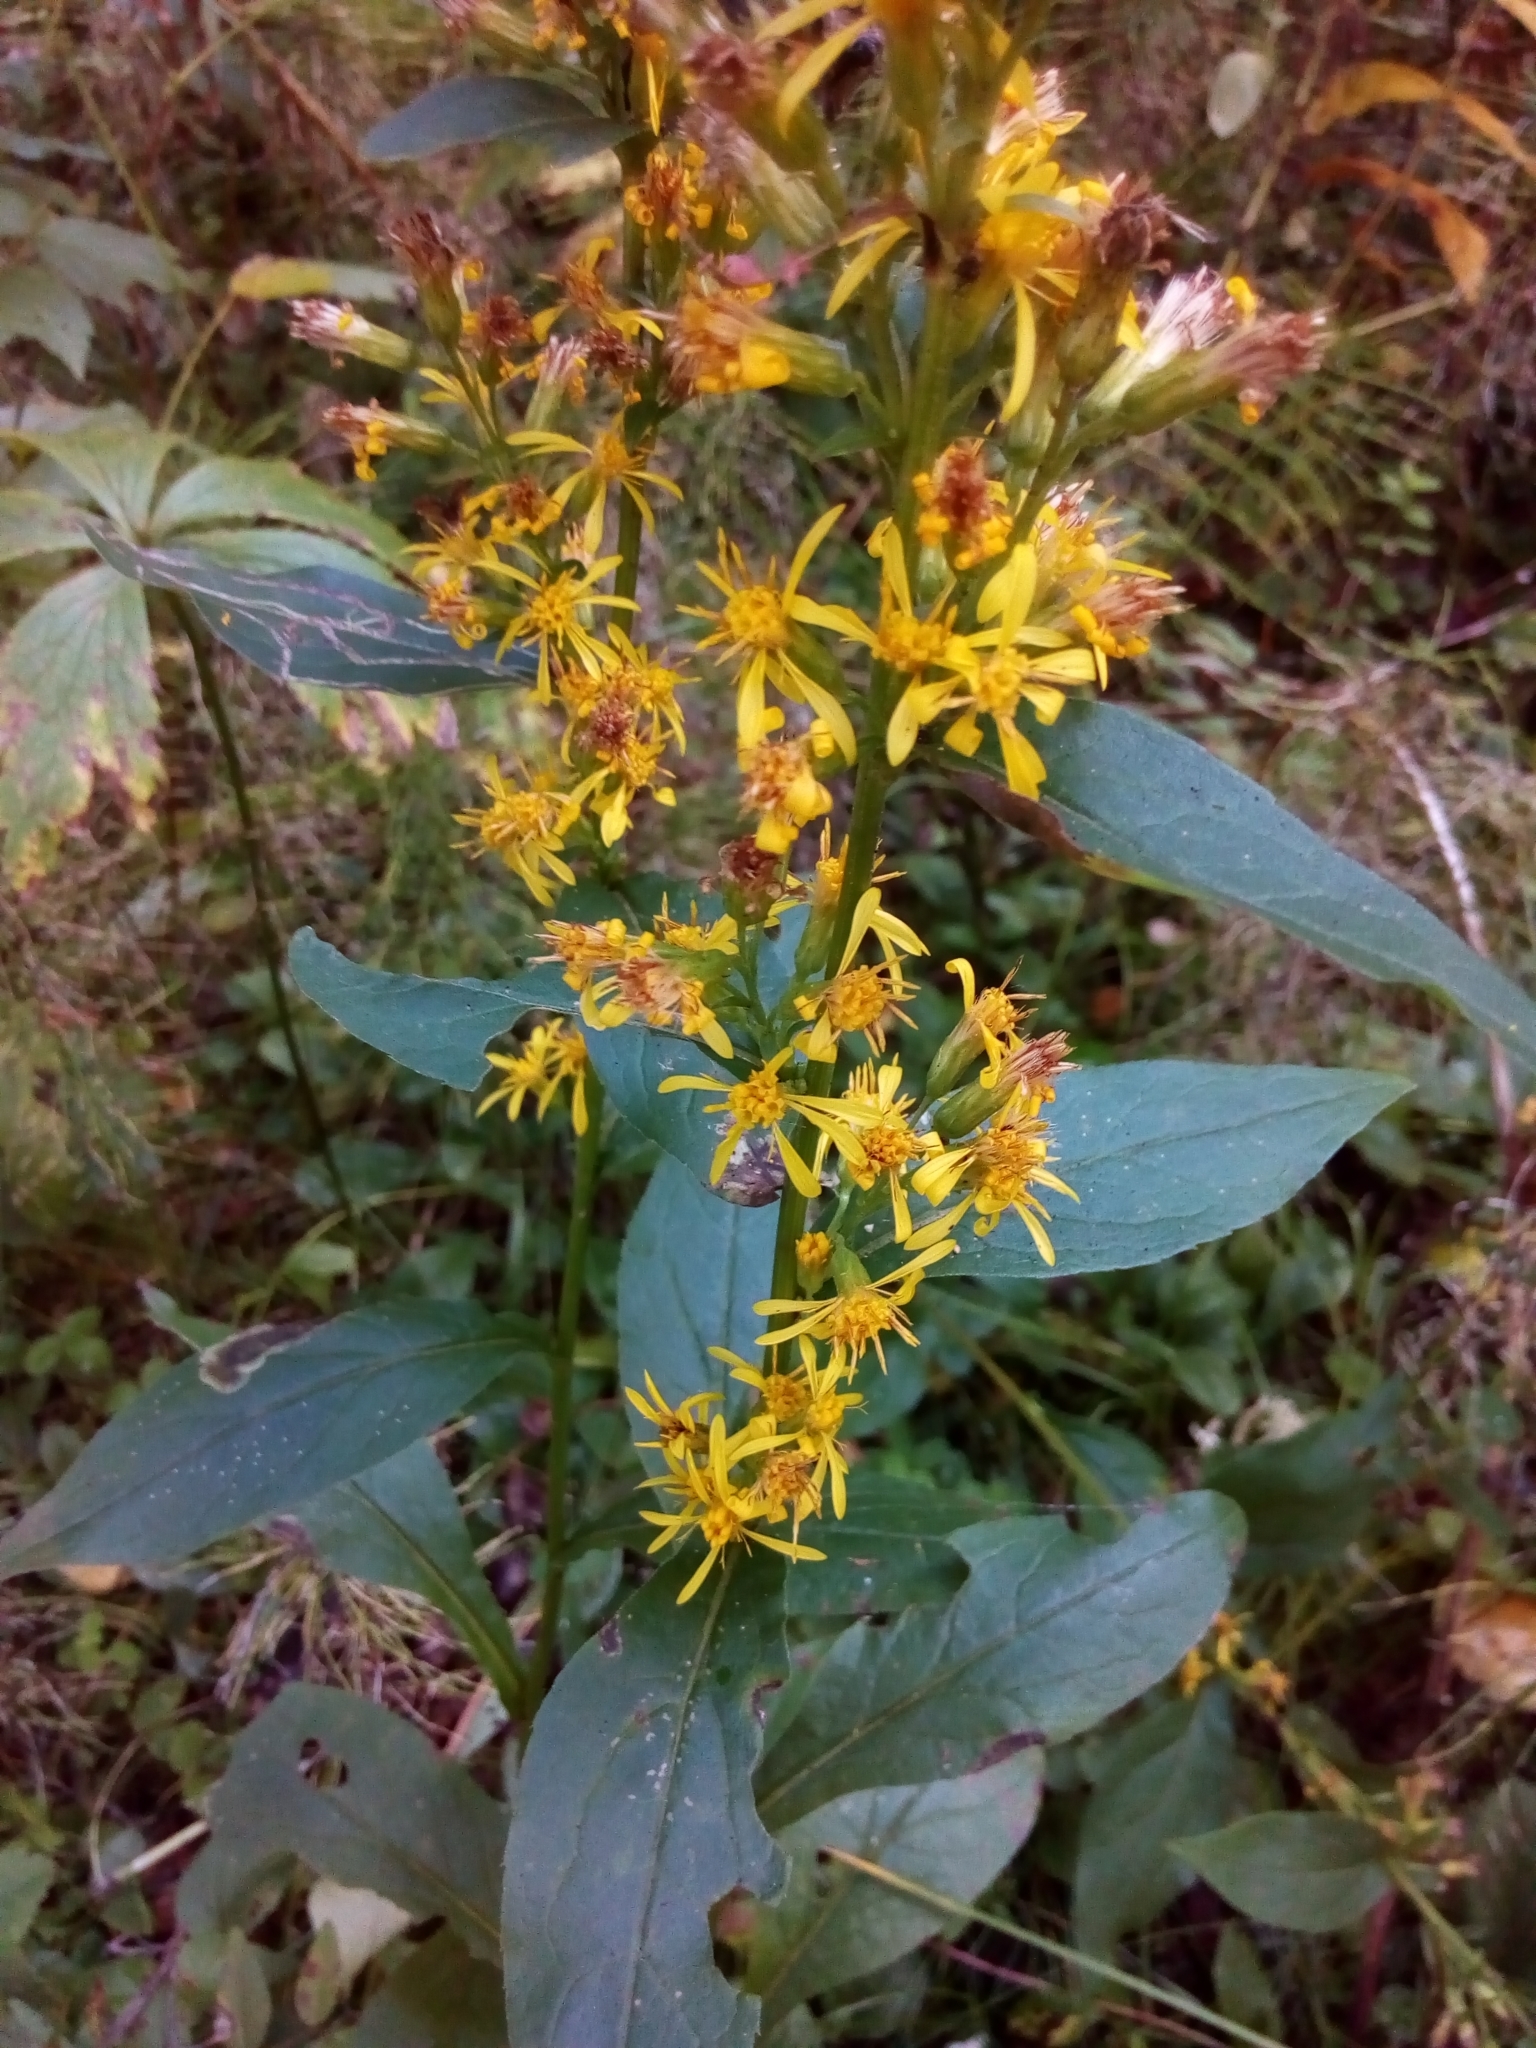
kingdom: Plantae
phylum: Tracheophyta
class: Magnoliopsida
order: Asterales
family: Asteraceae
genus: Solidago
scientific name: Solidago virgaurea
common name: Goldenrod
